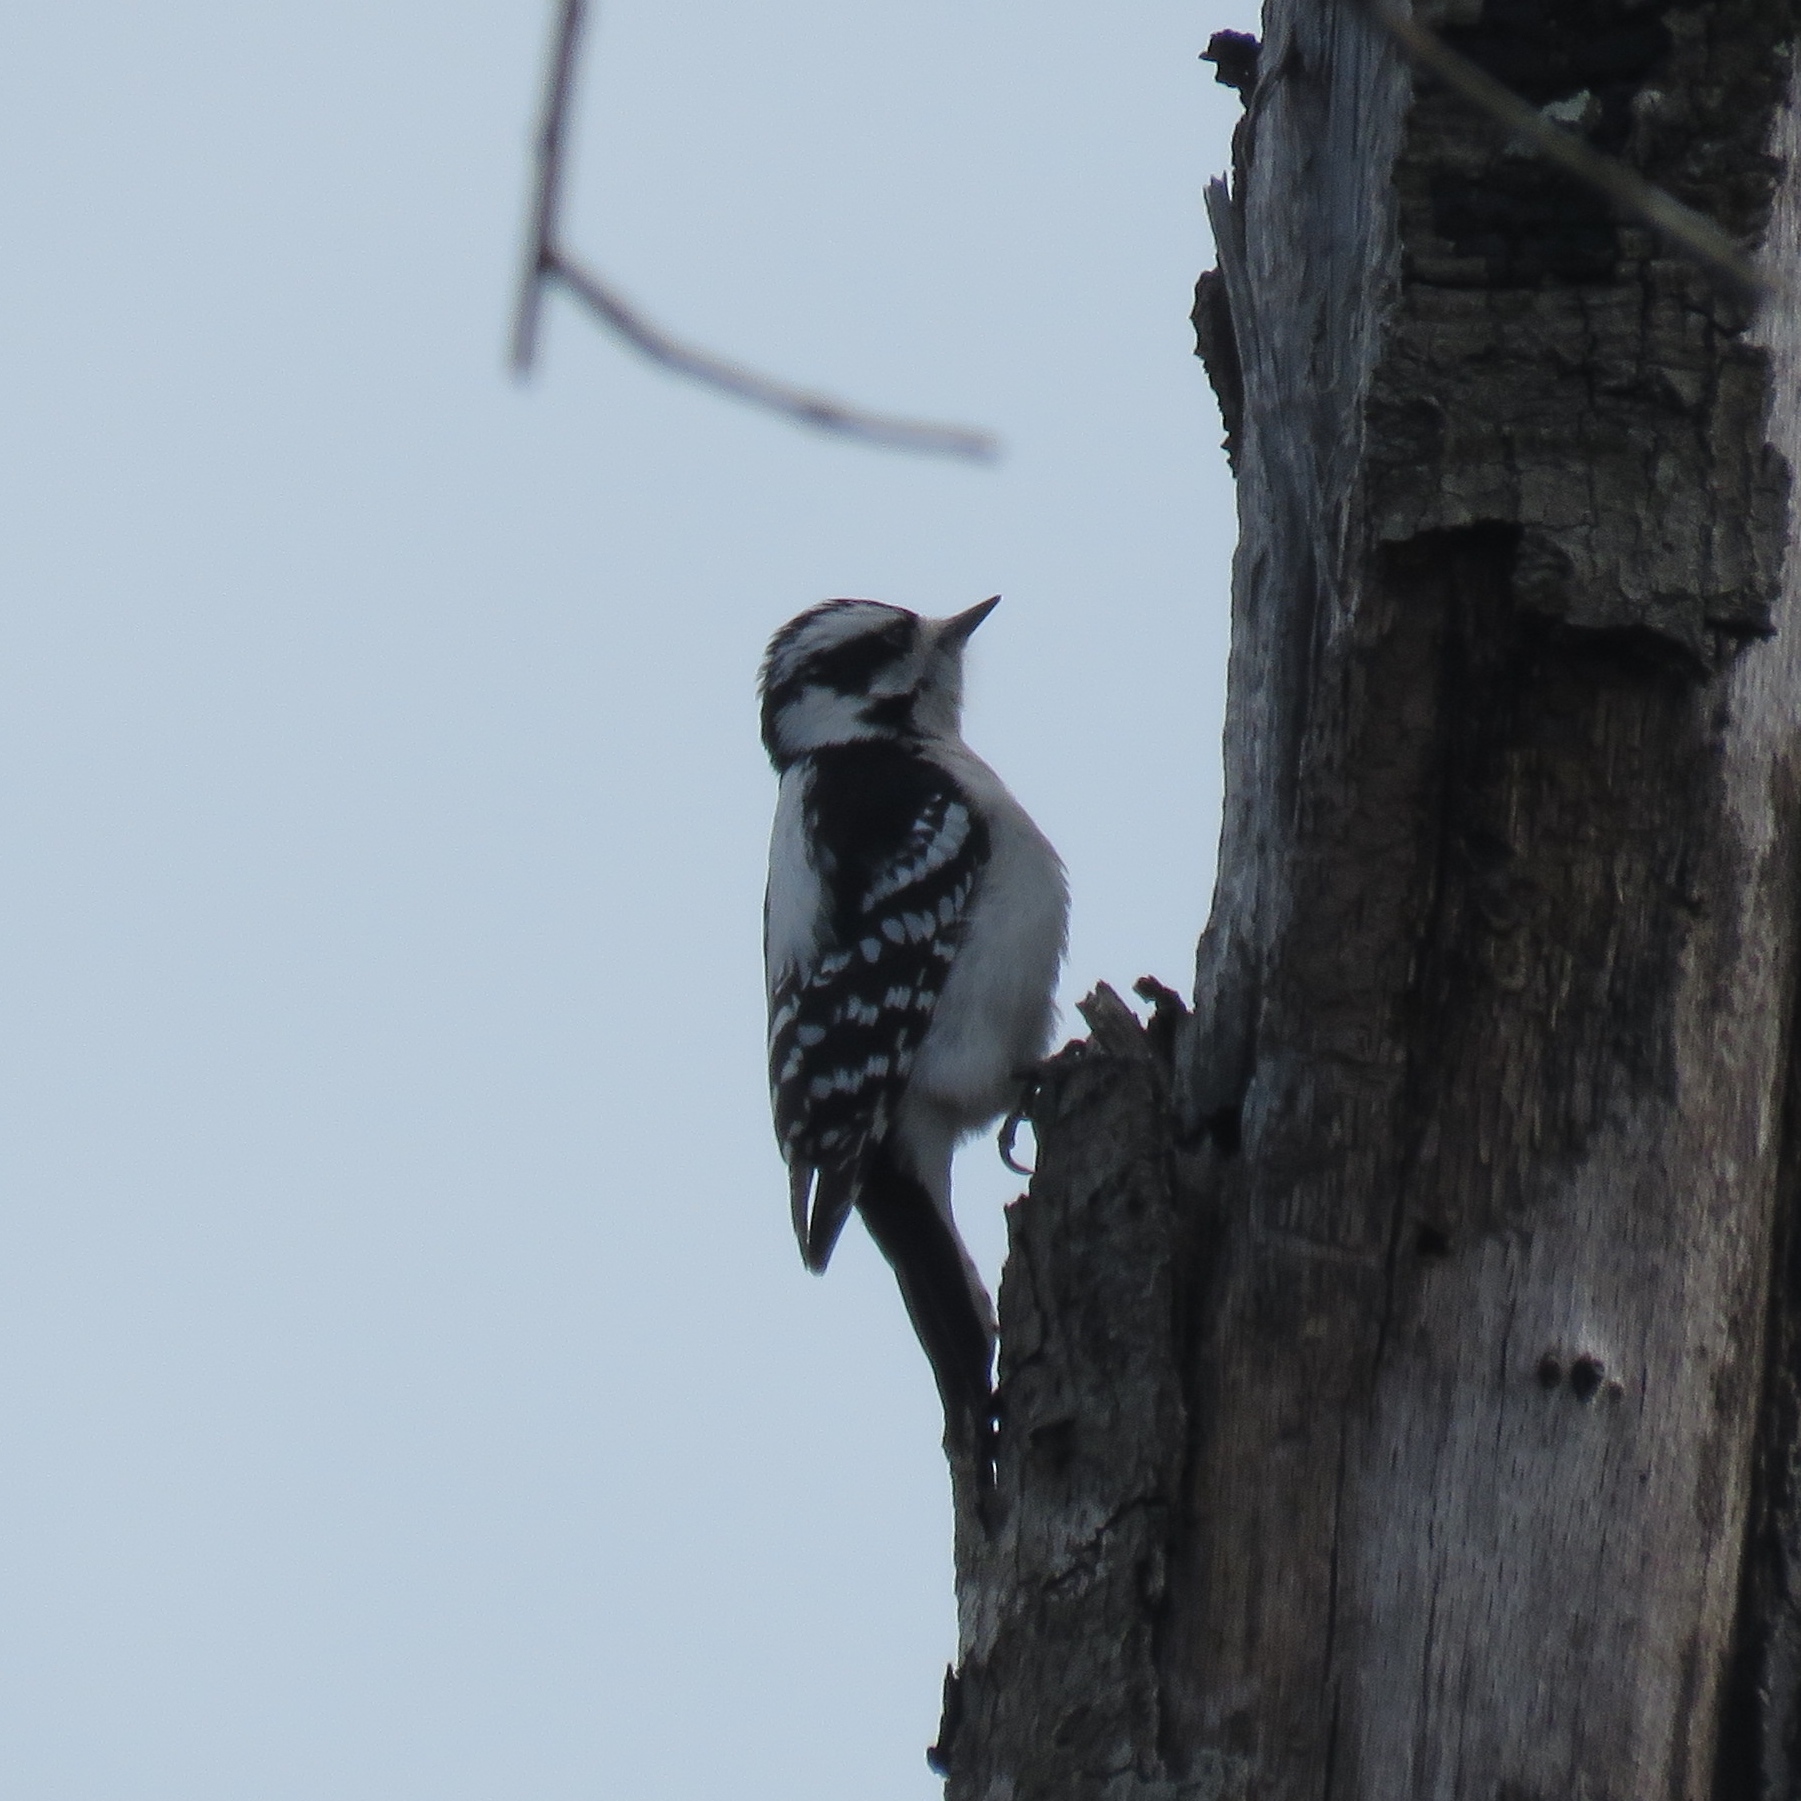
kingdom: Animalia
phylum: Chordata
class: Aves
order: Piciformes
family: Picidae
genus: Dryobates
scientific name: Dryobates pubescens
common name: Downy woodpecker
